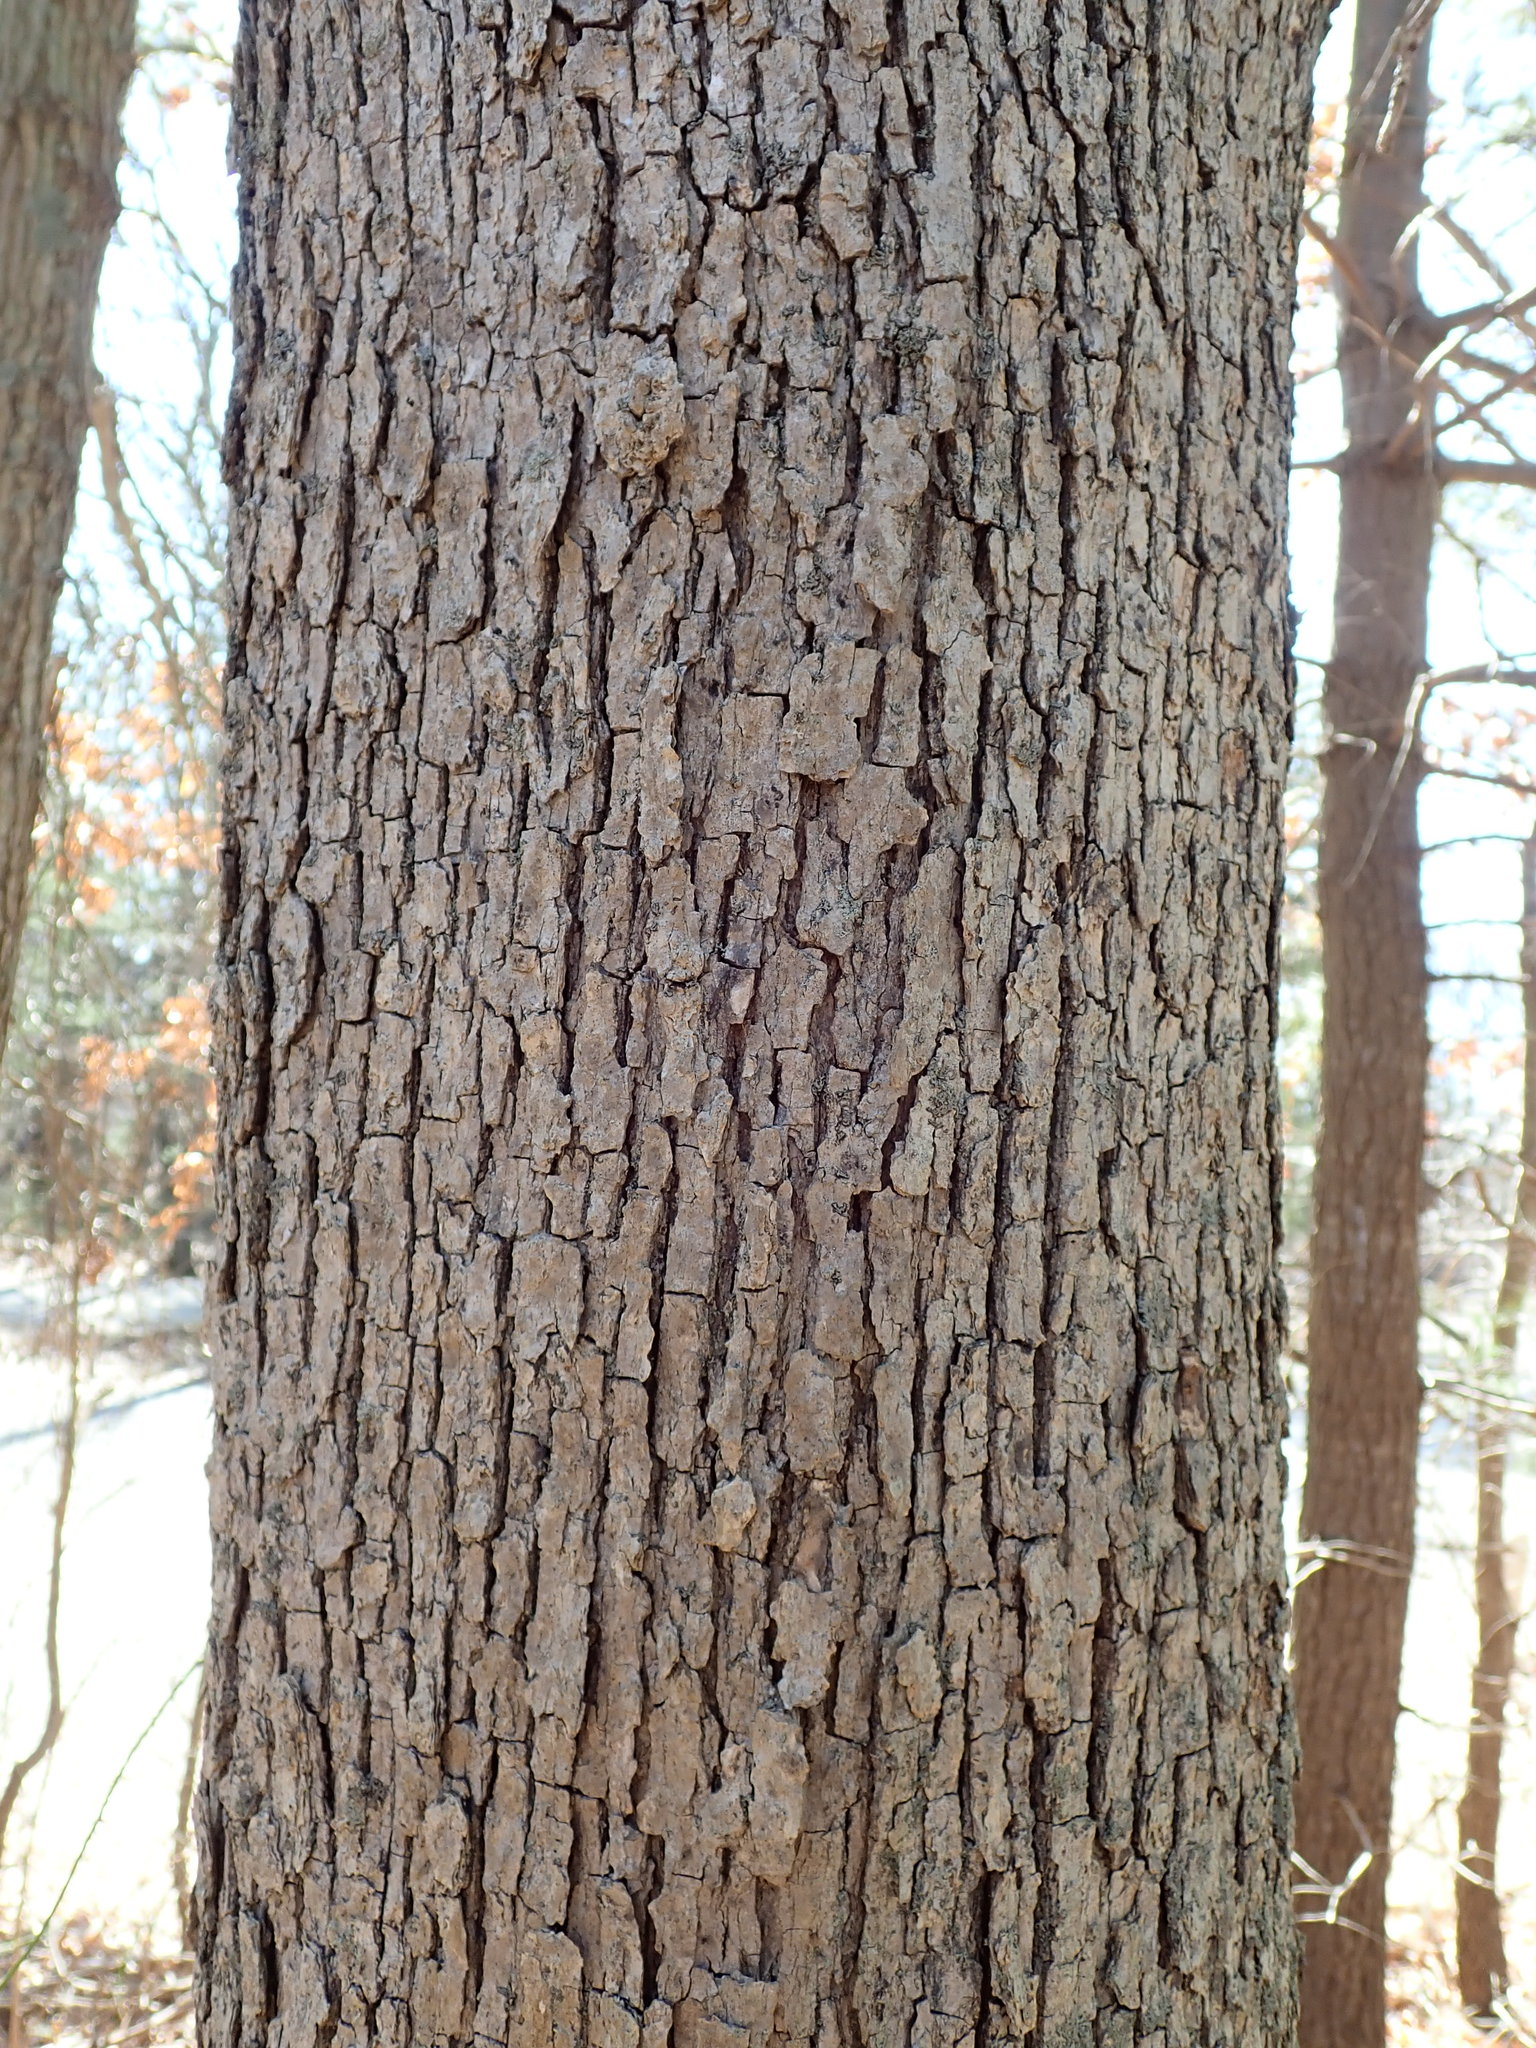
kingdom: Plantae
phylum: Tracheophyta
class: Magnoliopsida
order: Fagales
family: Fagaceae
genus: Quercus
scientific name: Quercus alba
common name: White oak
